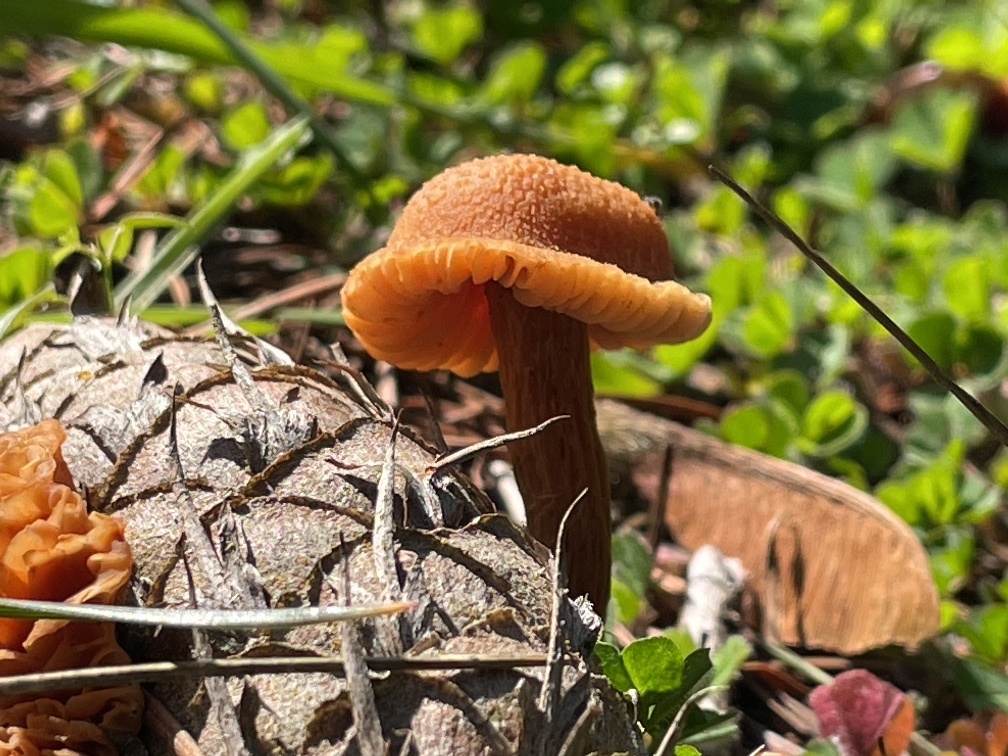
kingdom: Fungi
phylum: Basidiomycota
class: Agaricomycetes
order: Agaricales
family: Hydnangiaceae
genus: Laccaria
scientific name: Laccaria laccata
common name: Deceiver
